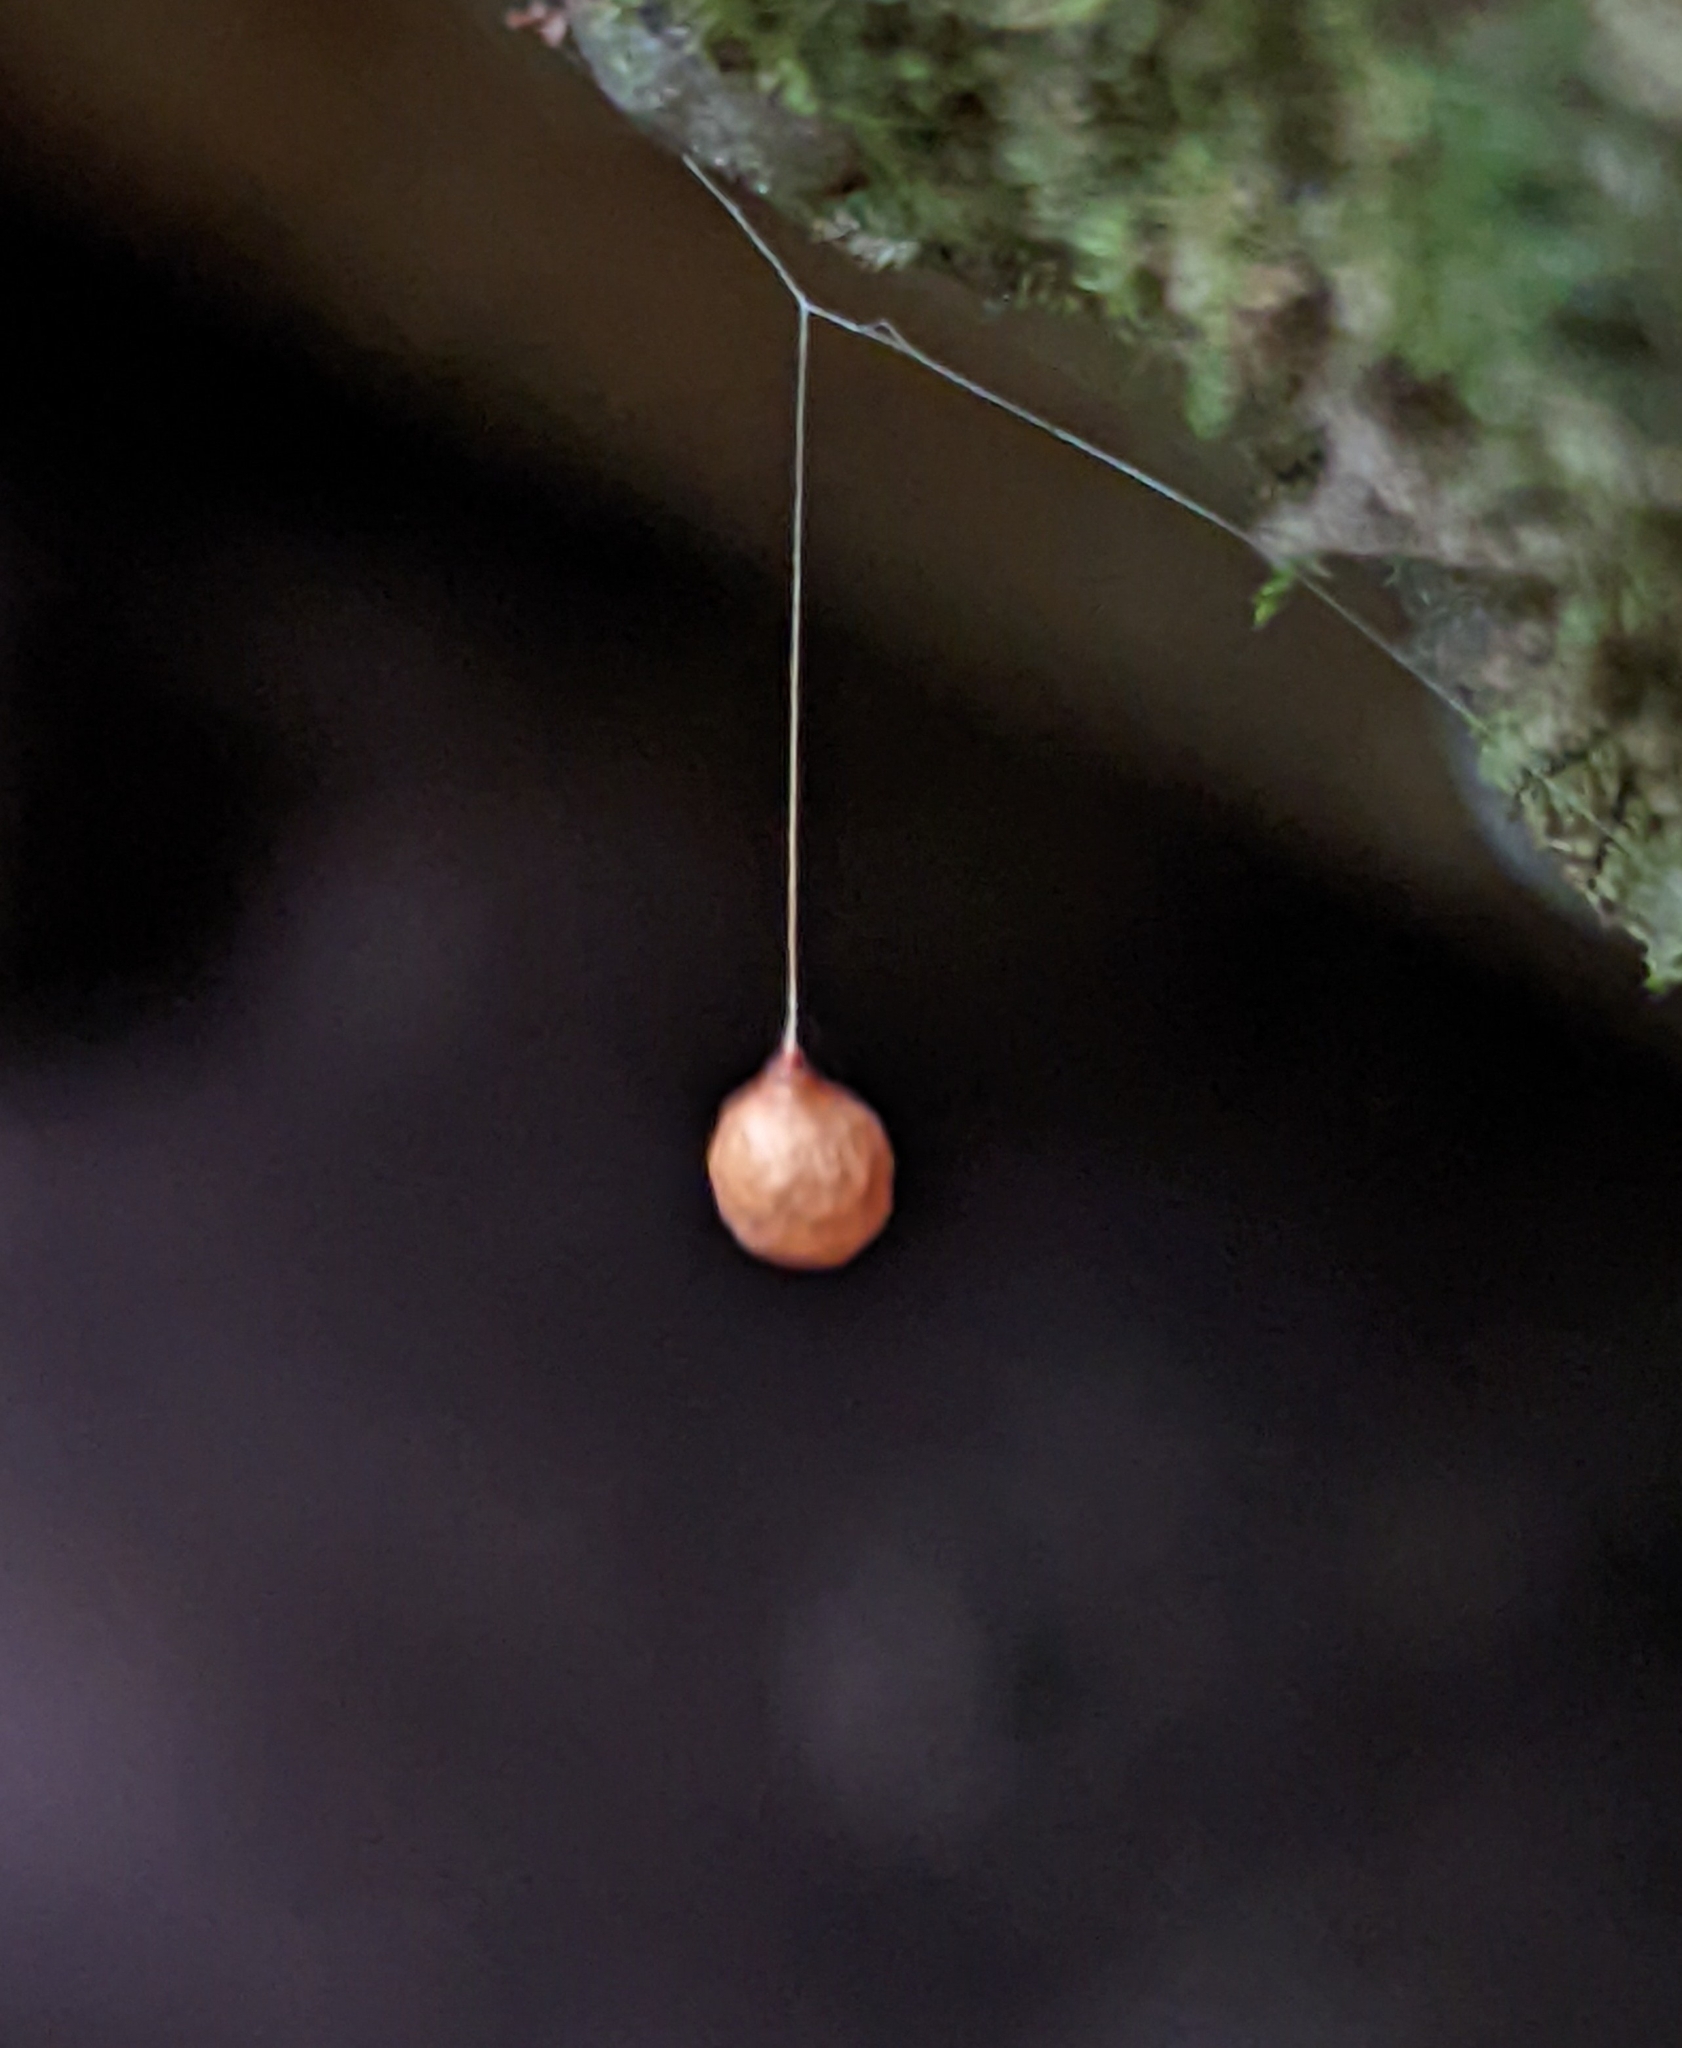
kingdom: Animalia
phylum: Arthropoda
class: Arachnida
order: Araneae
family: Theridiosomatidae
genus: Theridiosoma
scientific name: Theridiosoma gemmosum
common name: Ray spider
